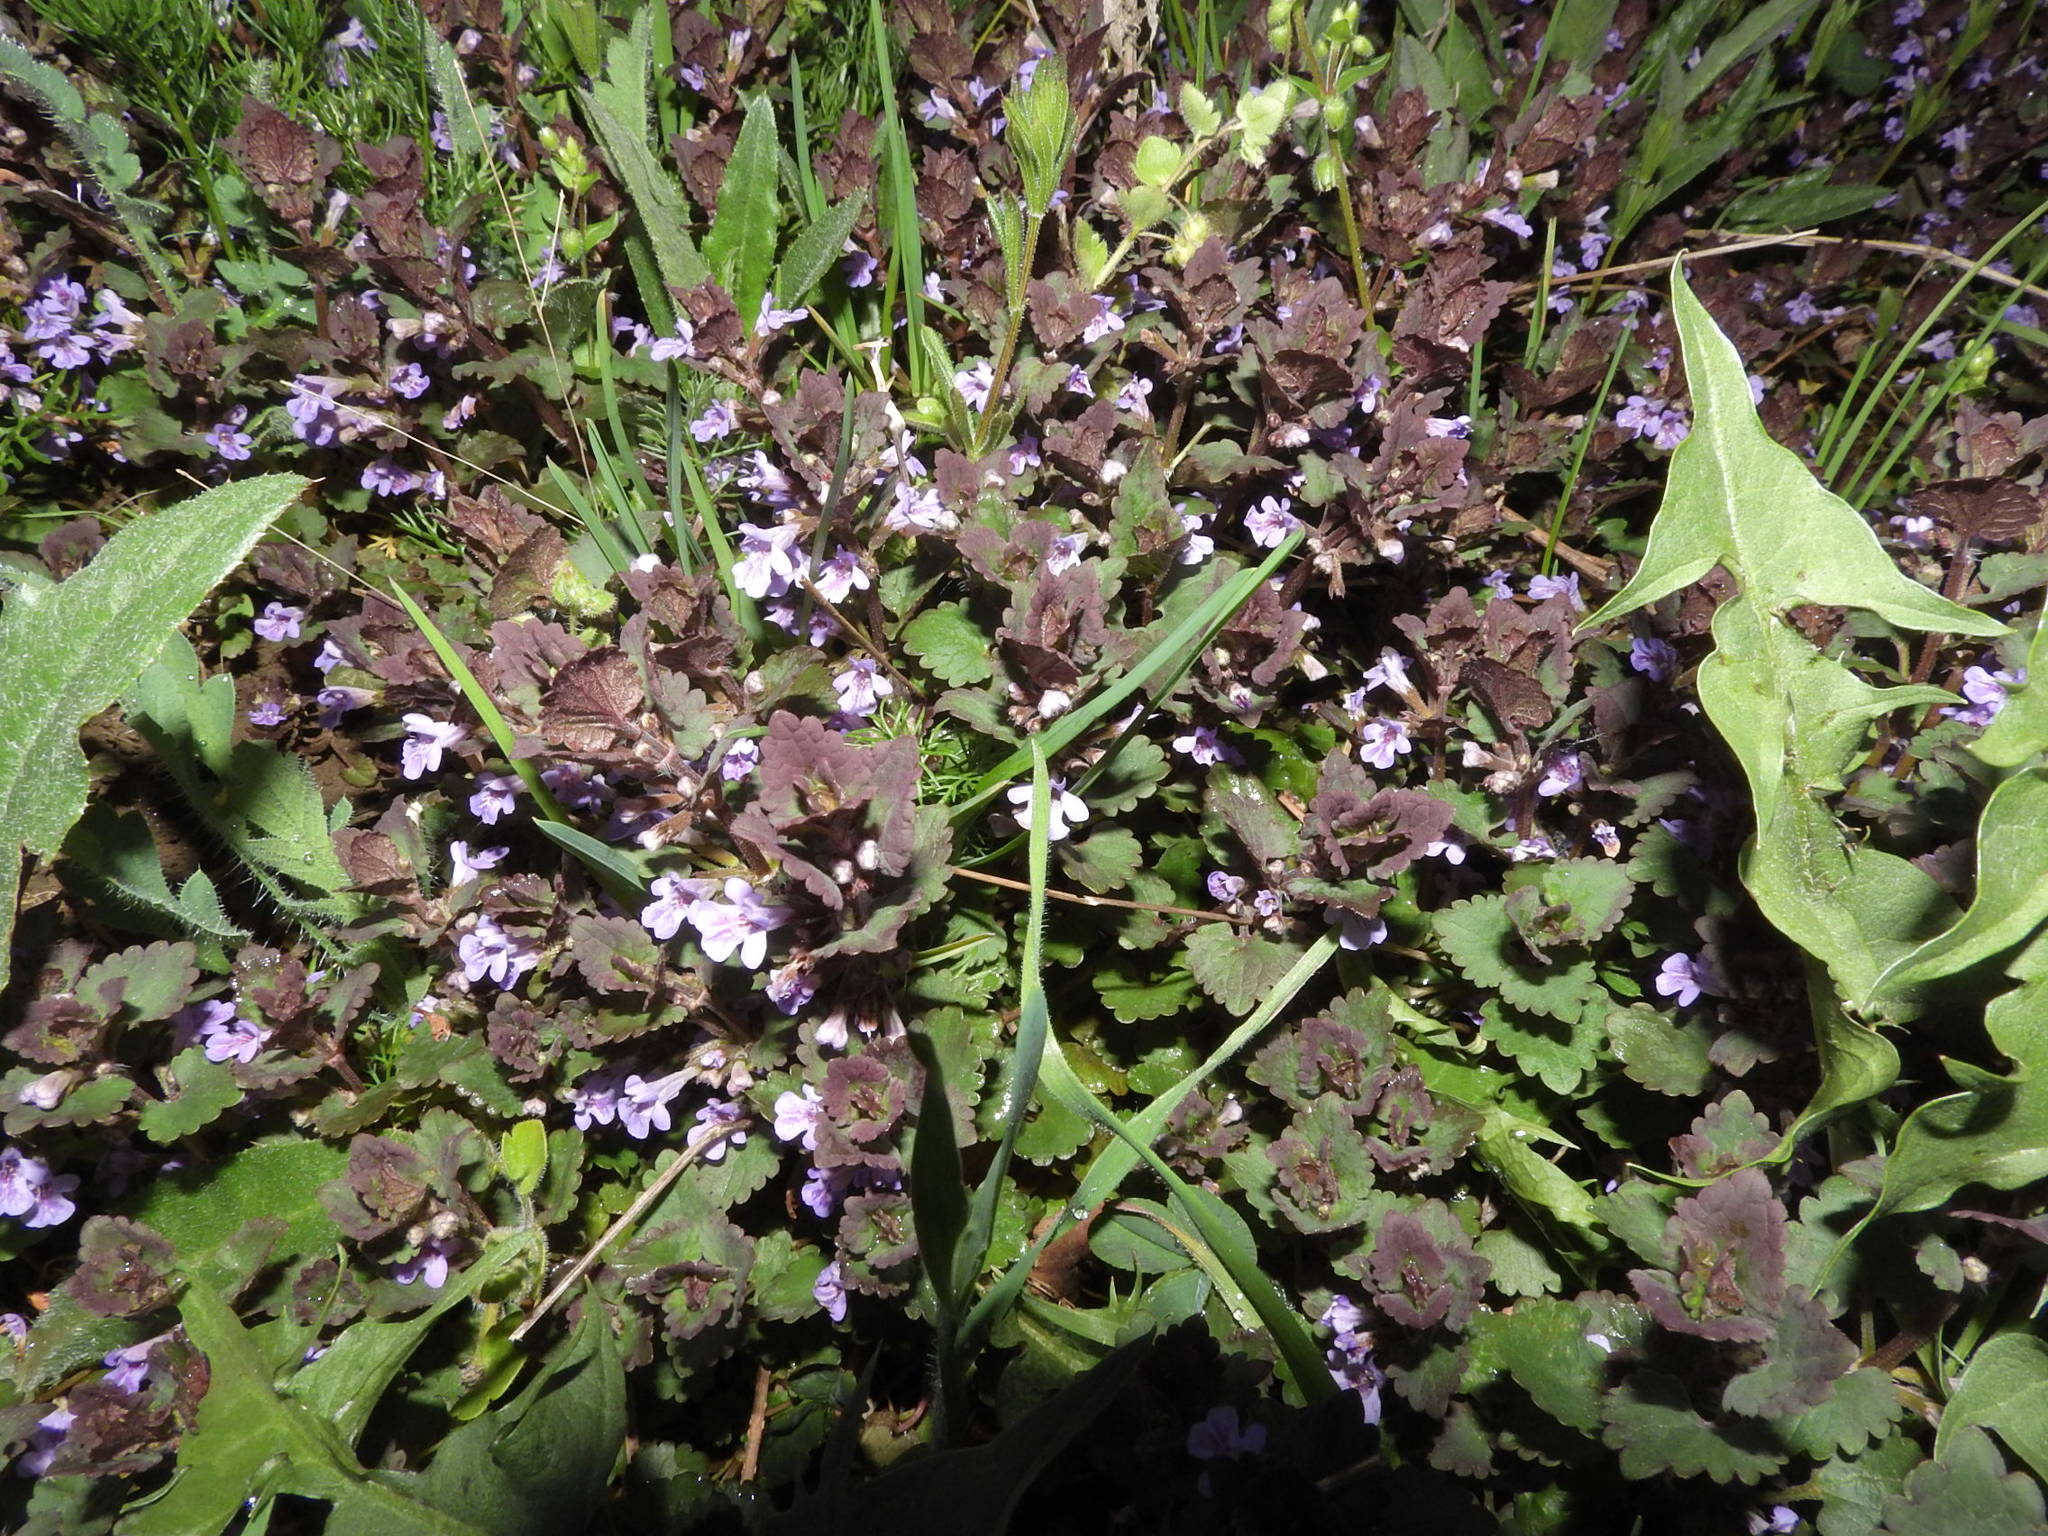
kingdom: Plantae
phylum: Tracheophyta
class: Magnoliopsida
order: Lamiales
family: Lamiaceae
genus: Glechoma
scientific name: Glechoma hederacea
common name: Ground ivy
